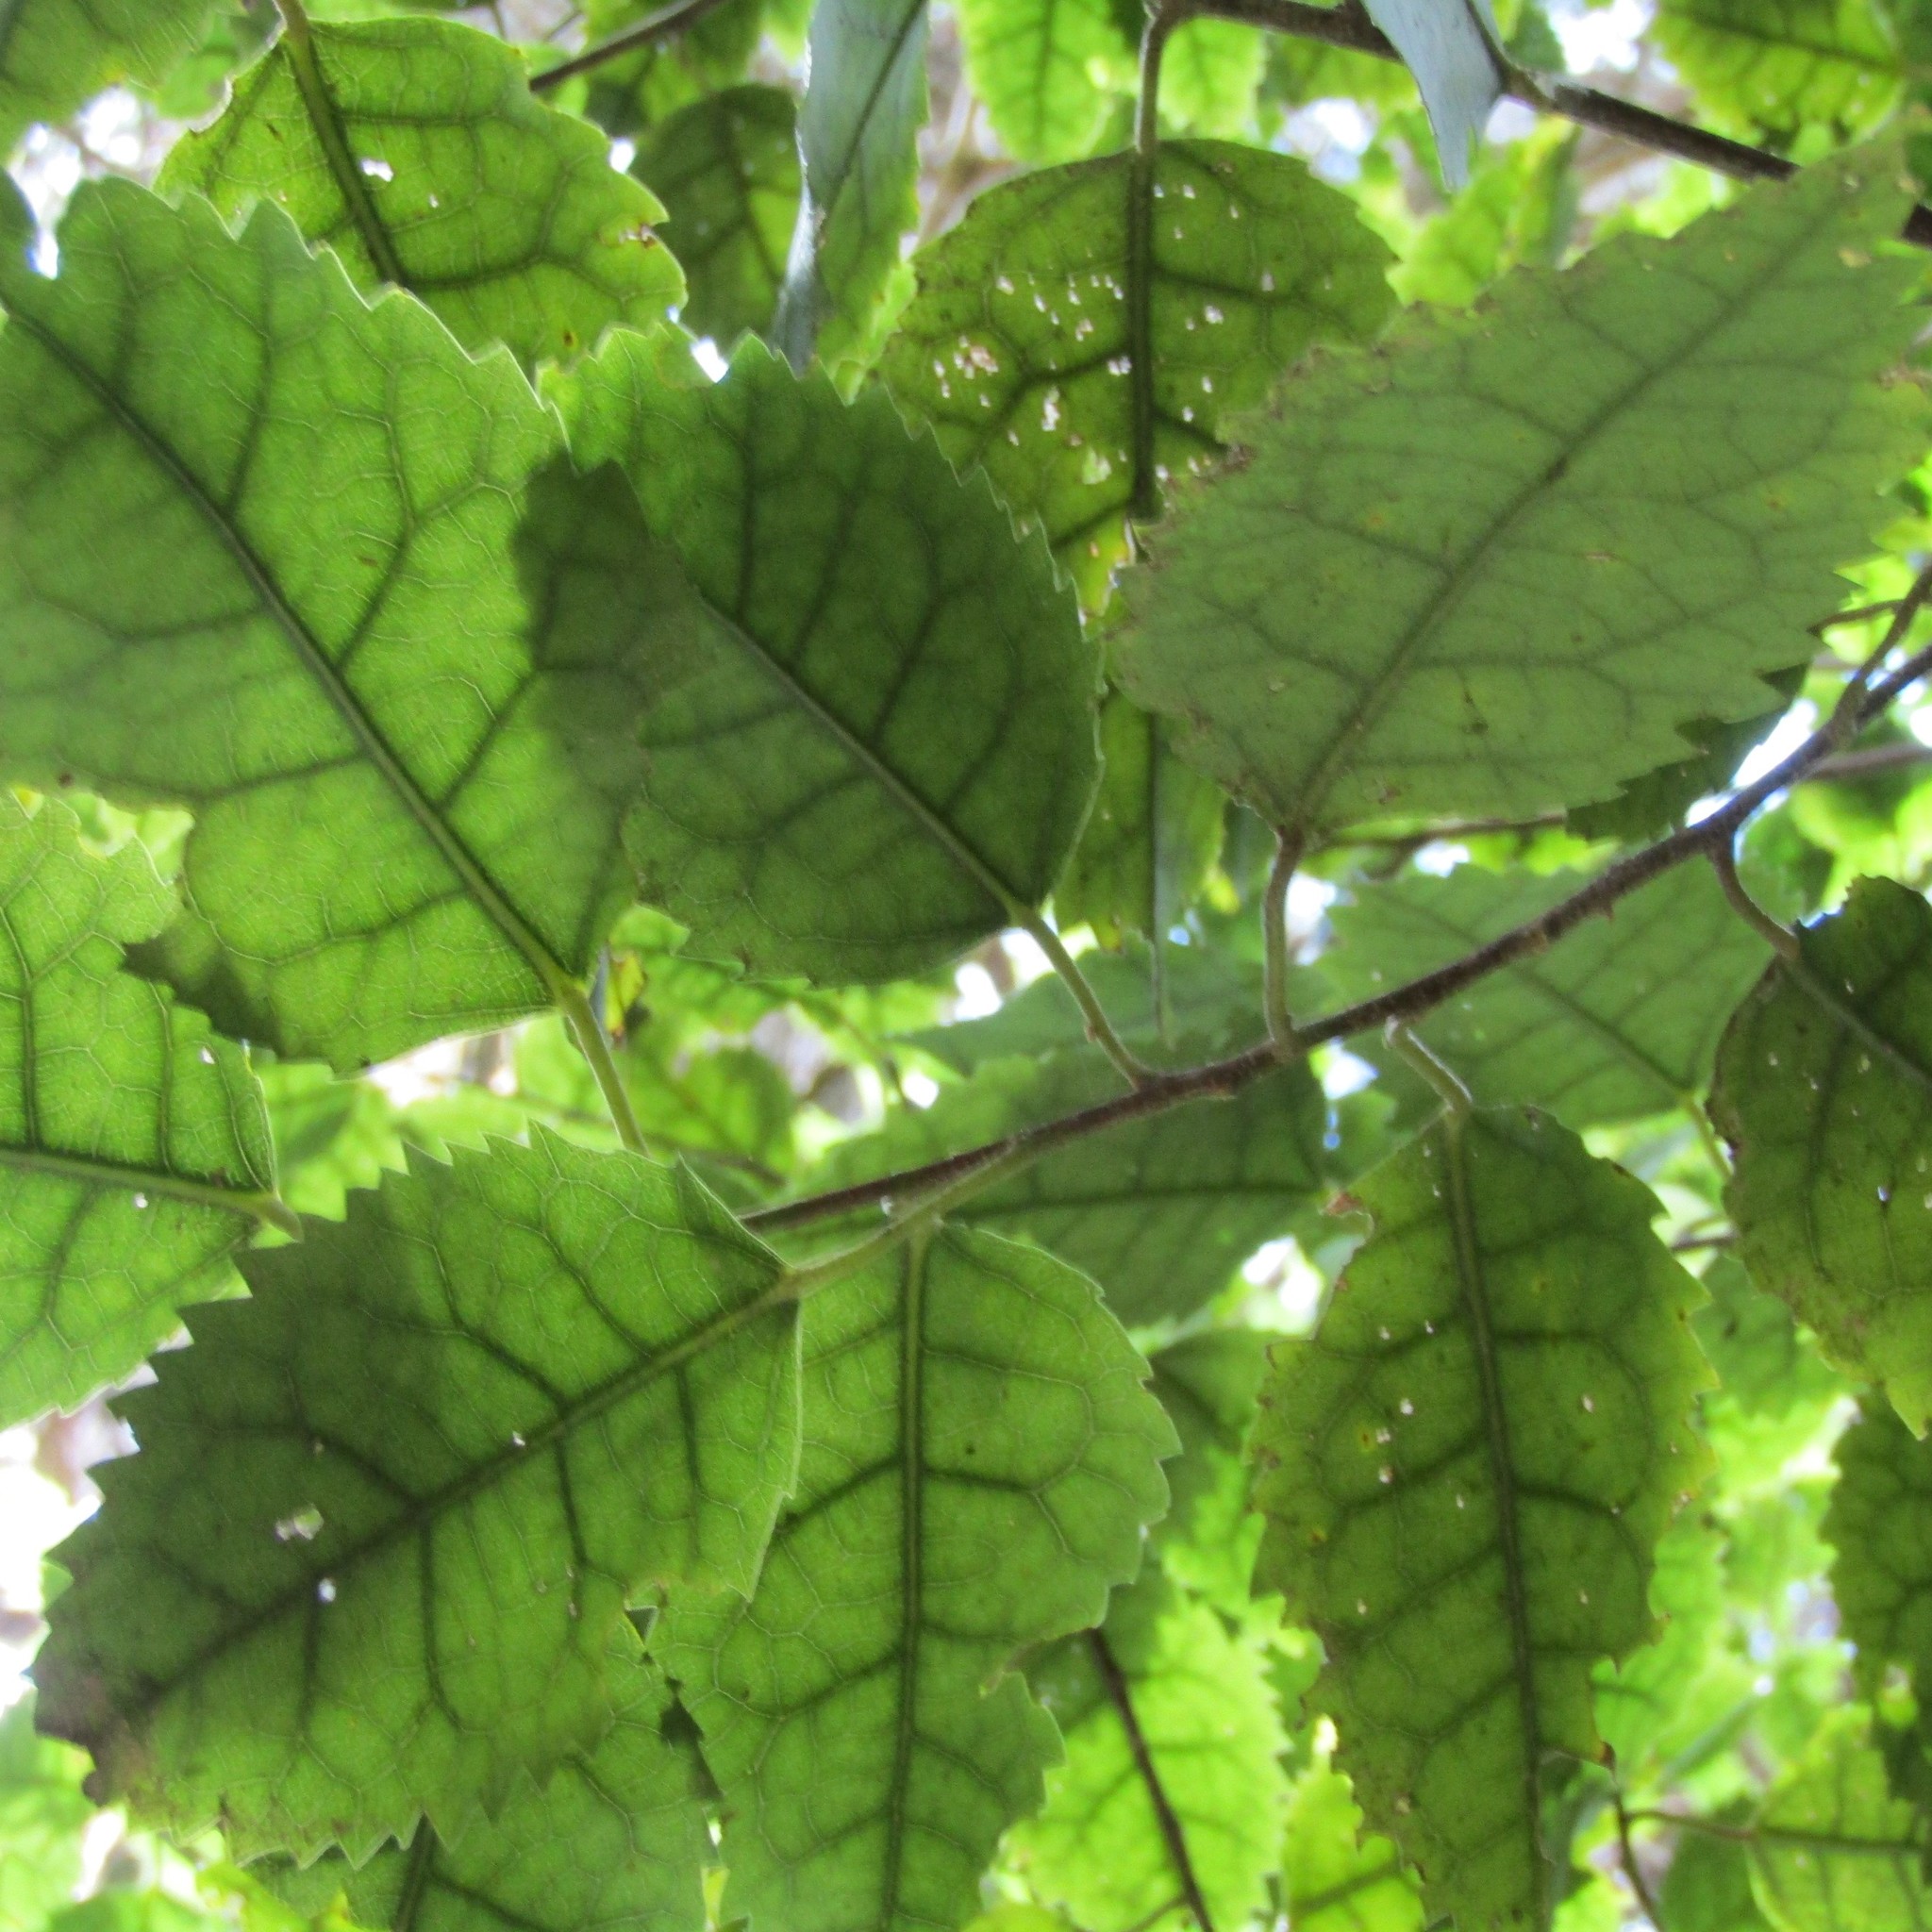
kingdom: Plantae
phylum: Tracheophyta
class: Magnoliopsida
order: Malvales
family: Malvaceae
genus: Hoheria
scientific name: Hoheria populnea
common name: Lacebark
